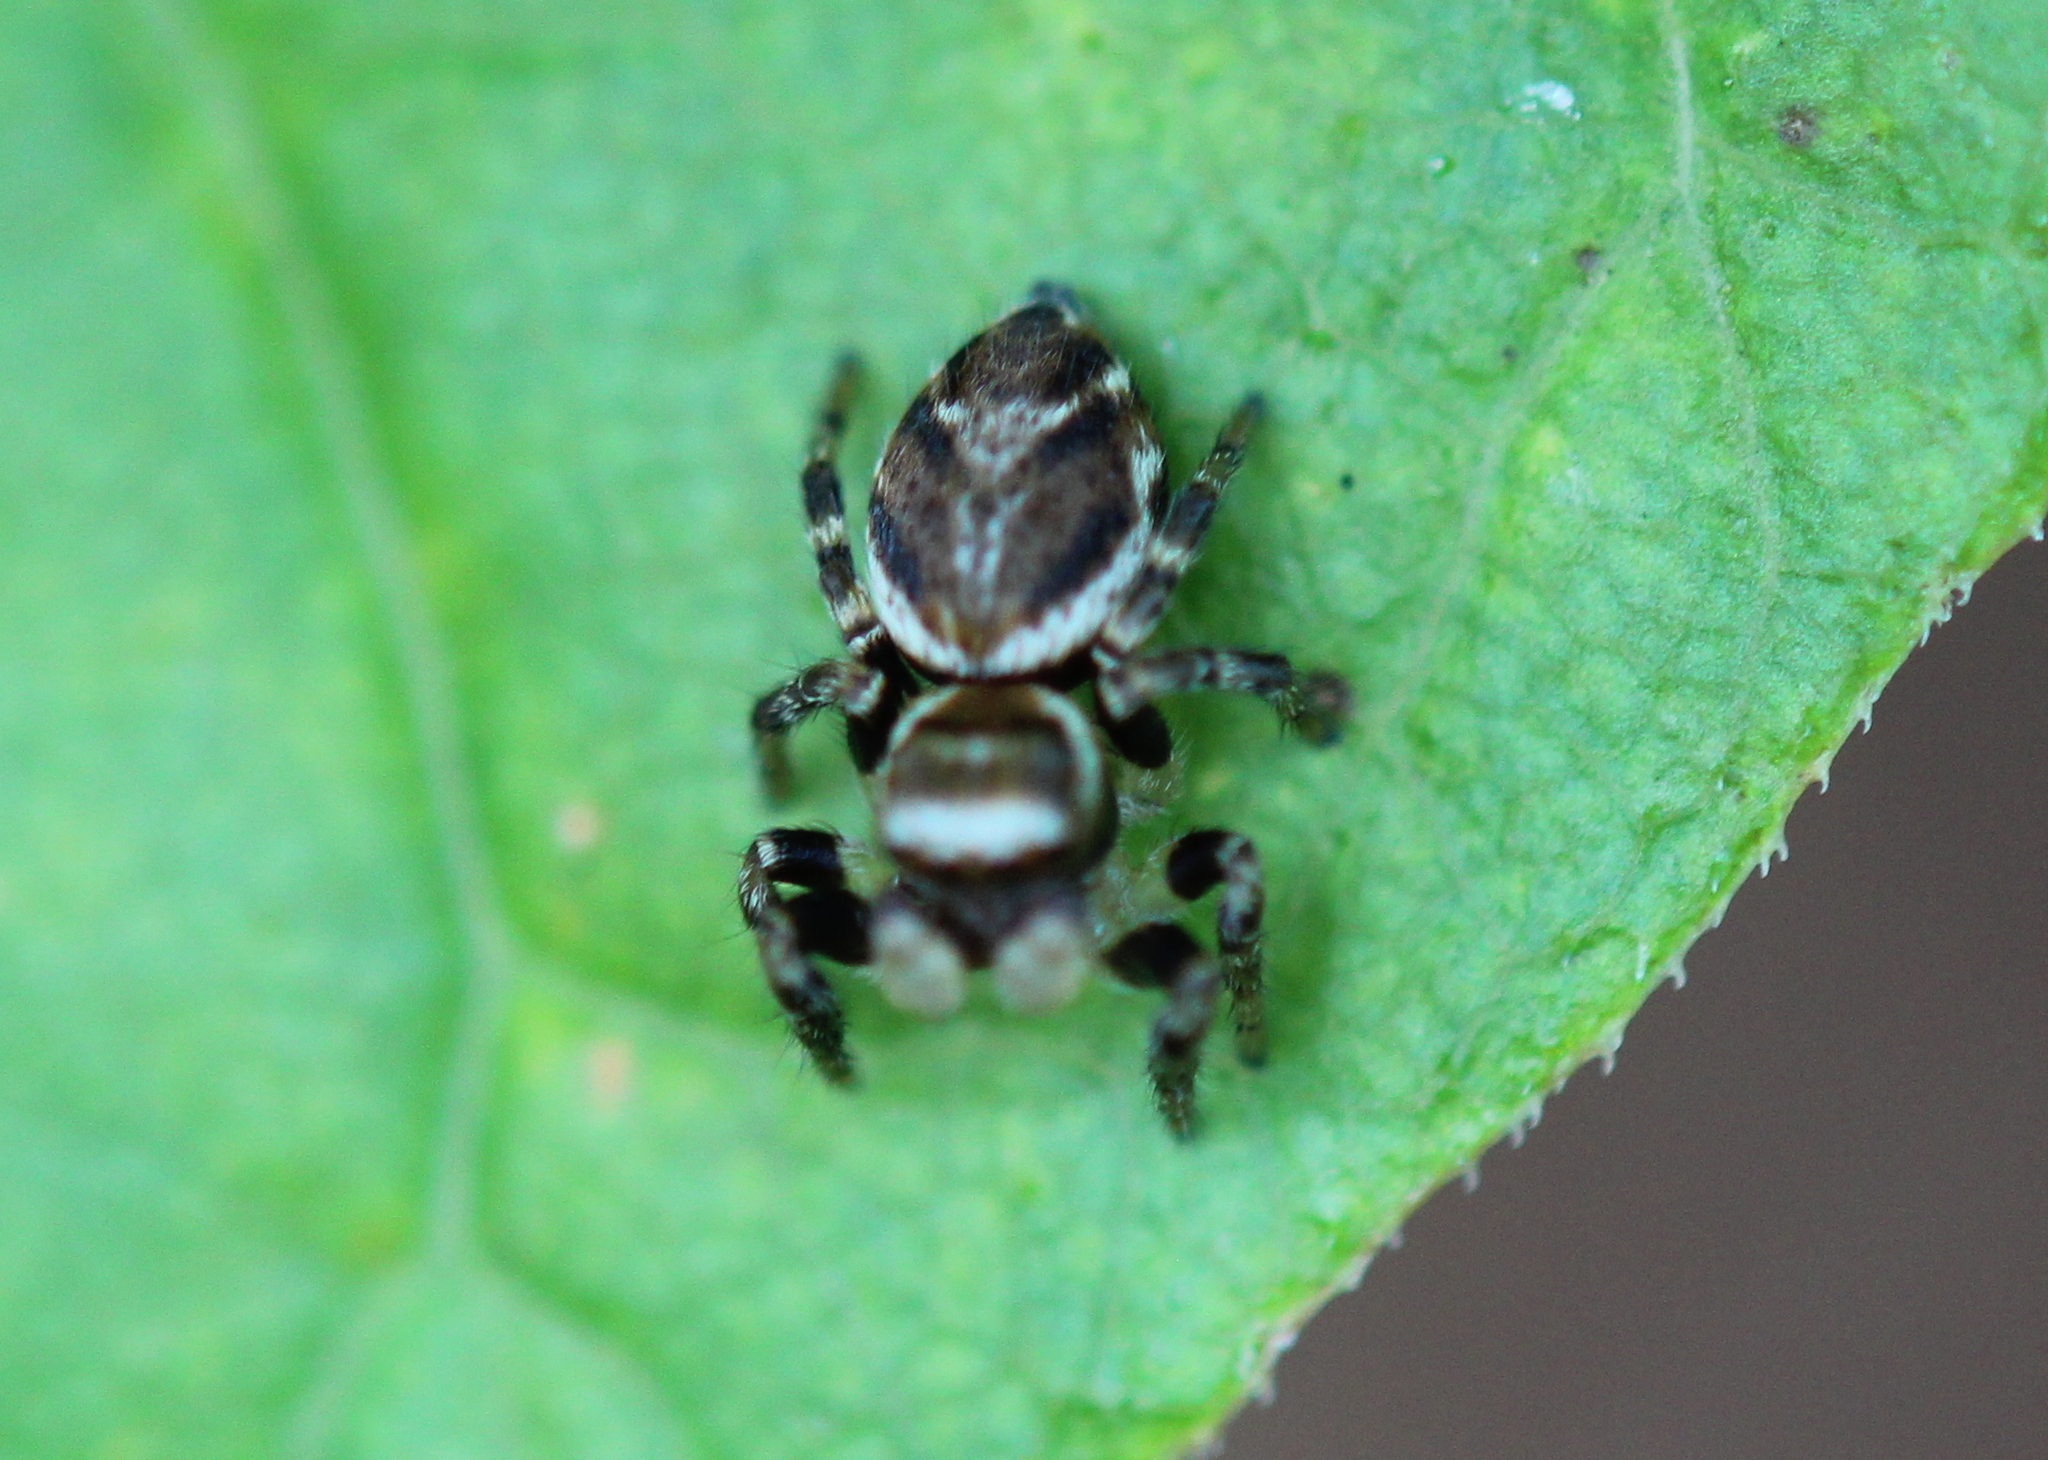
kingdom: Animalia
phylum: Arthropoda
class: Arachnida
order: Araneae
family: Salticidae
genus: Evarcha
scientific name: Evarcha hoyi
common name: Hoy's jumping spider
